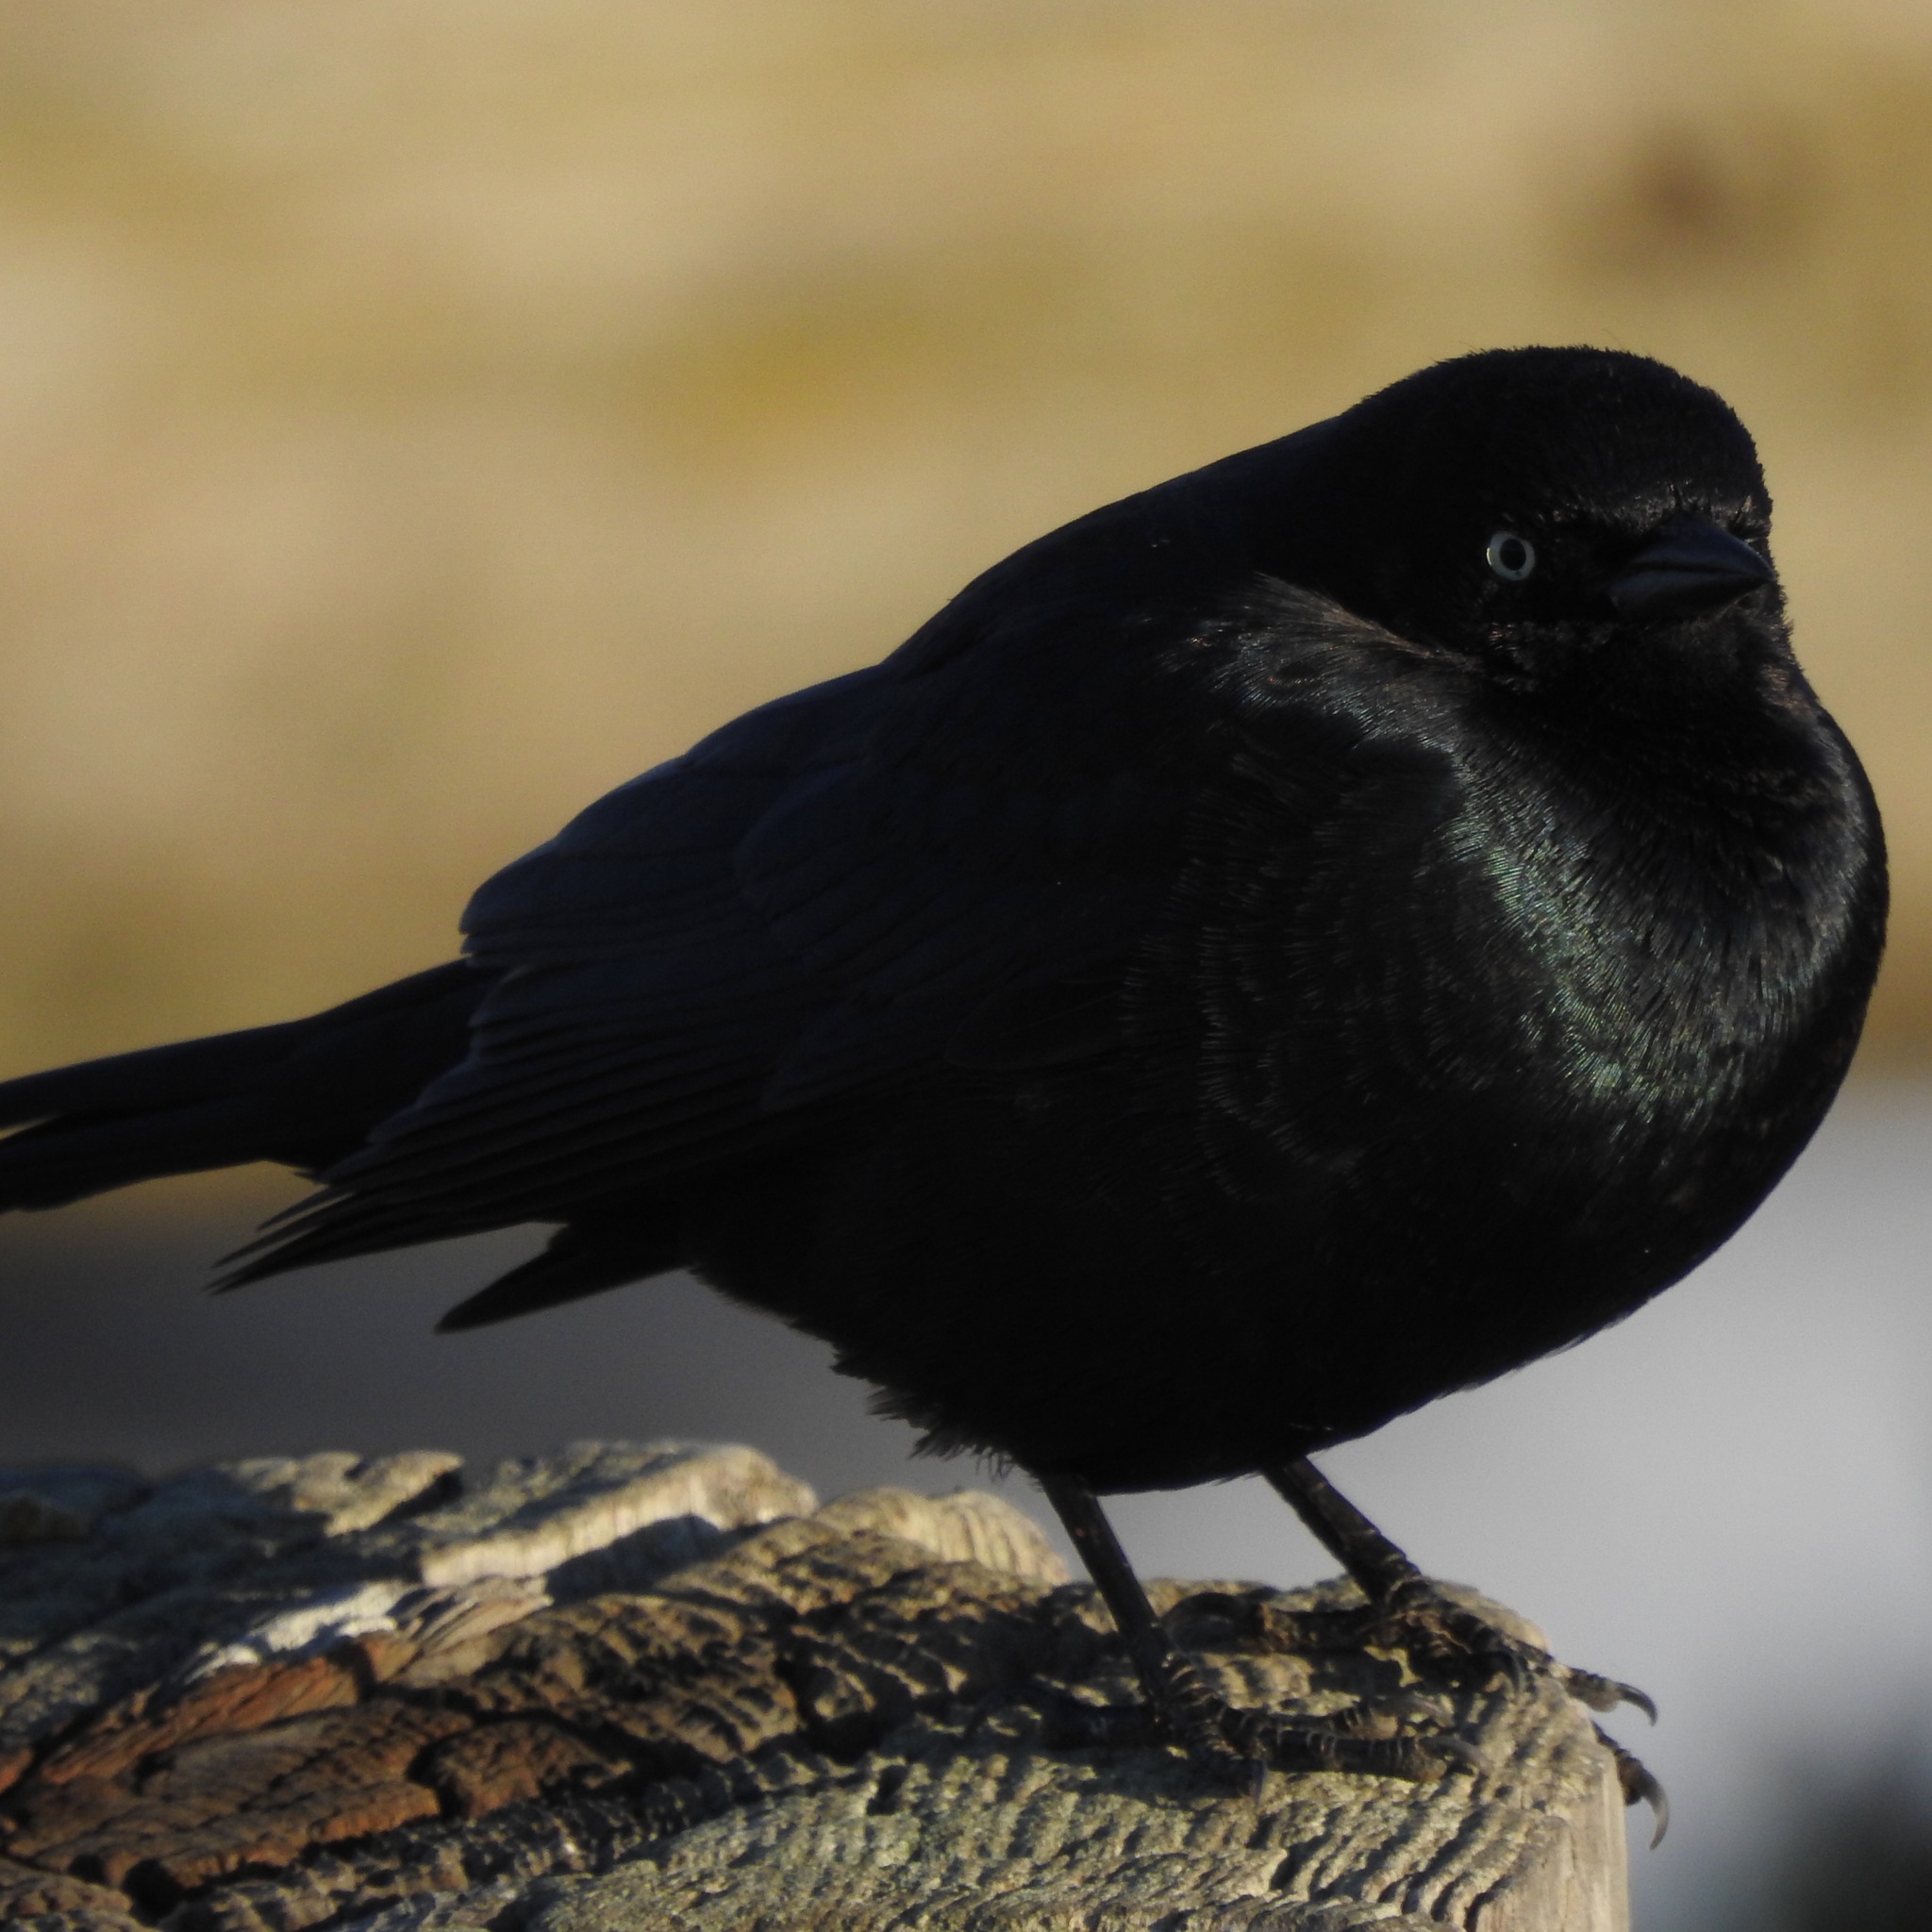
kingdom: Animalia
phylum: Chordata
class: Aves
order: Passeriformes
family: Icteridae
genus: Euphagus
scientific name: Euphagus cyanocephalus
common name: Brewer's blackbird
